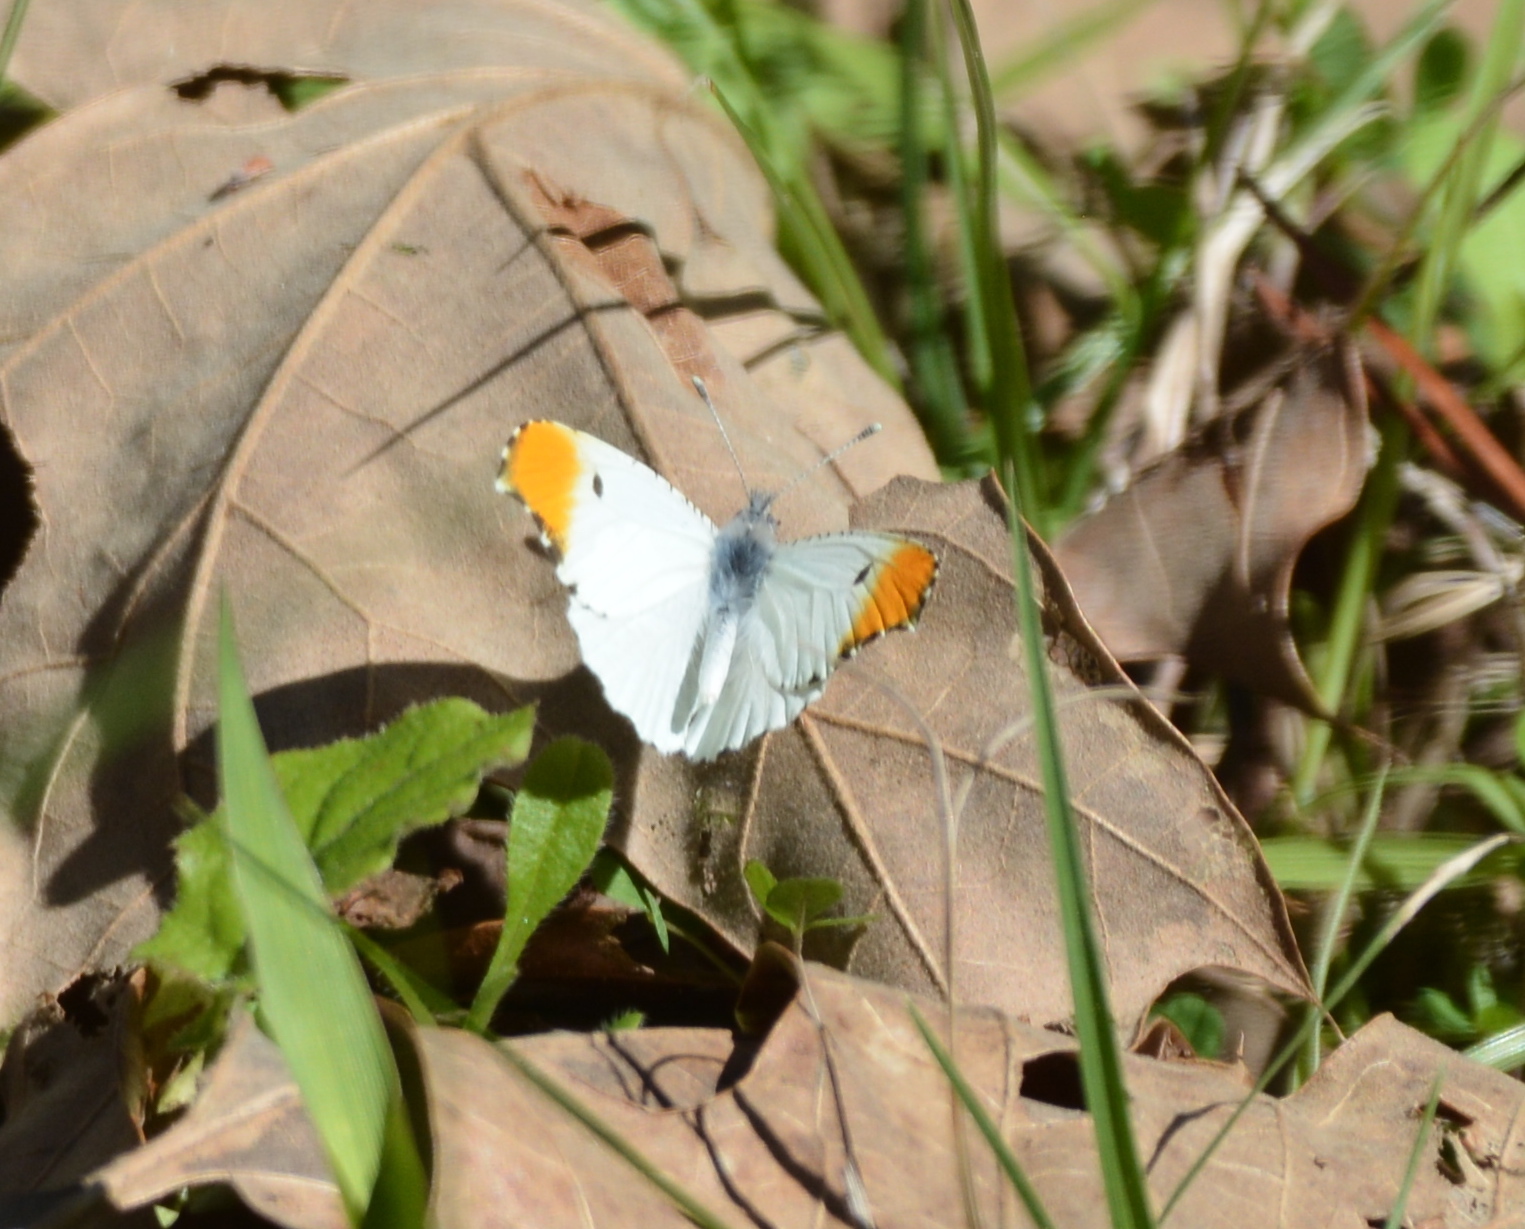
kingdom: Animalia
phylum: Arthropoda
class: Insecta
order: Lepidoptera
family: Pieridae
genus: Anthocharis
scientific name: Anthocharis midea
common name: Falcate orangetip
